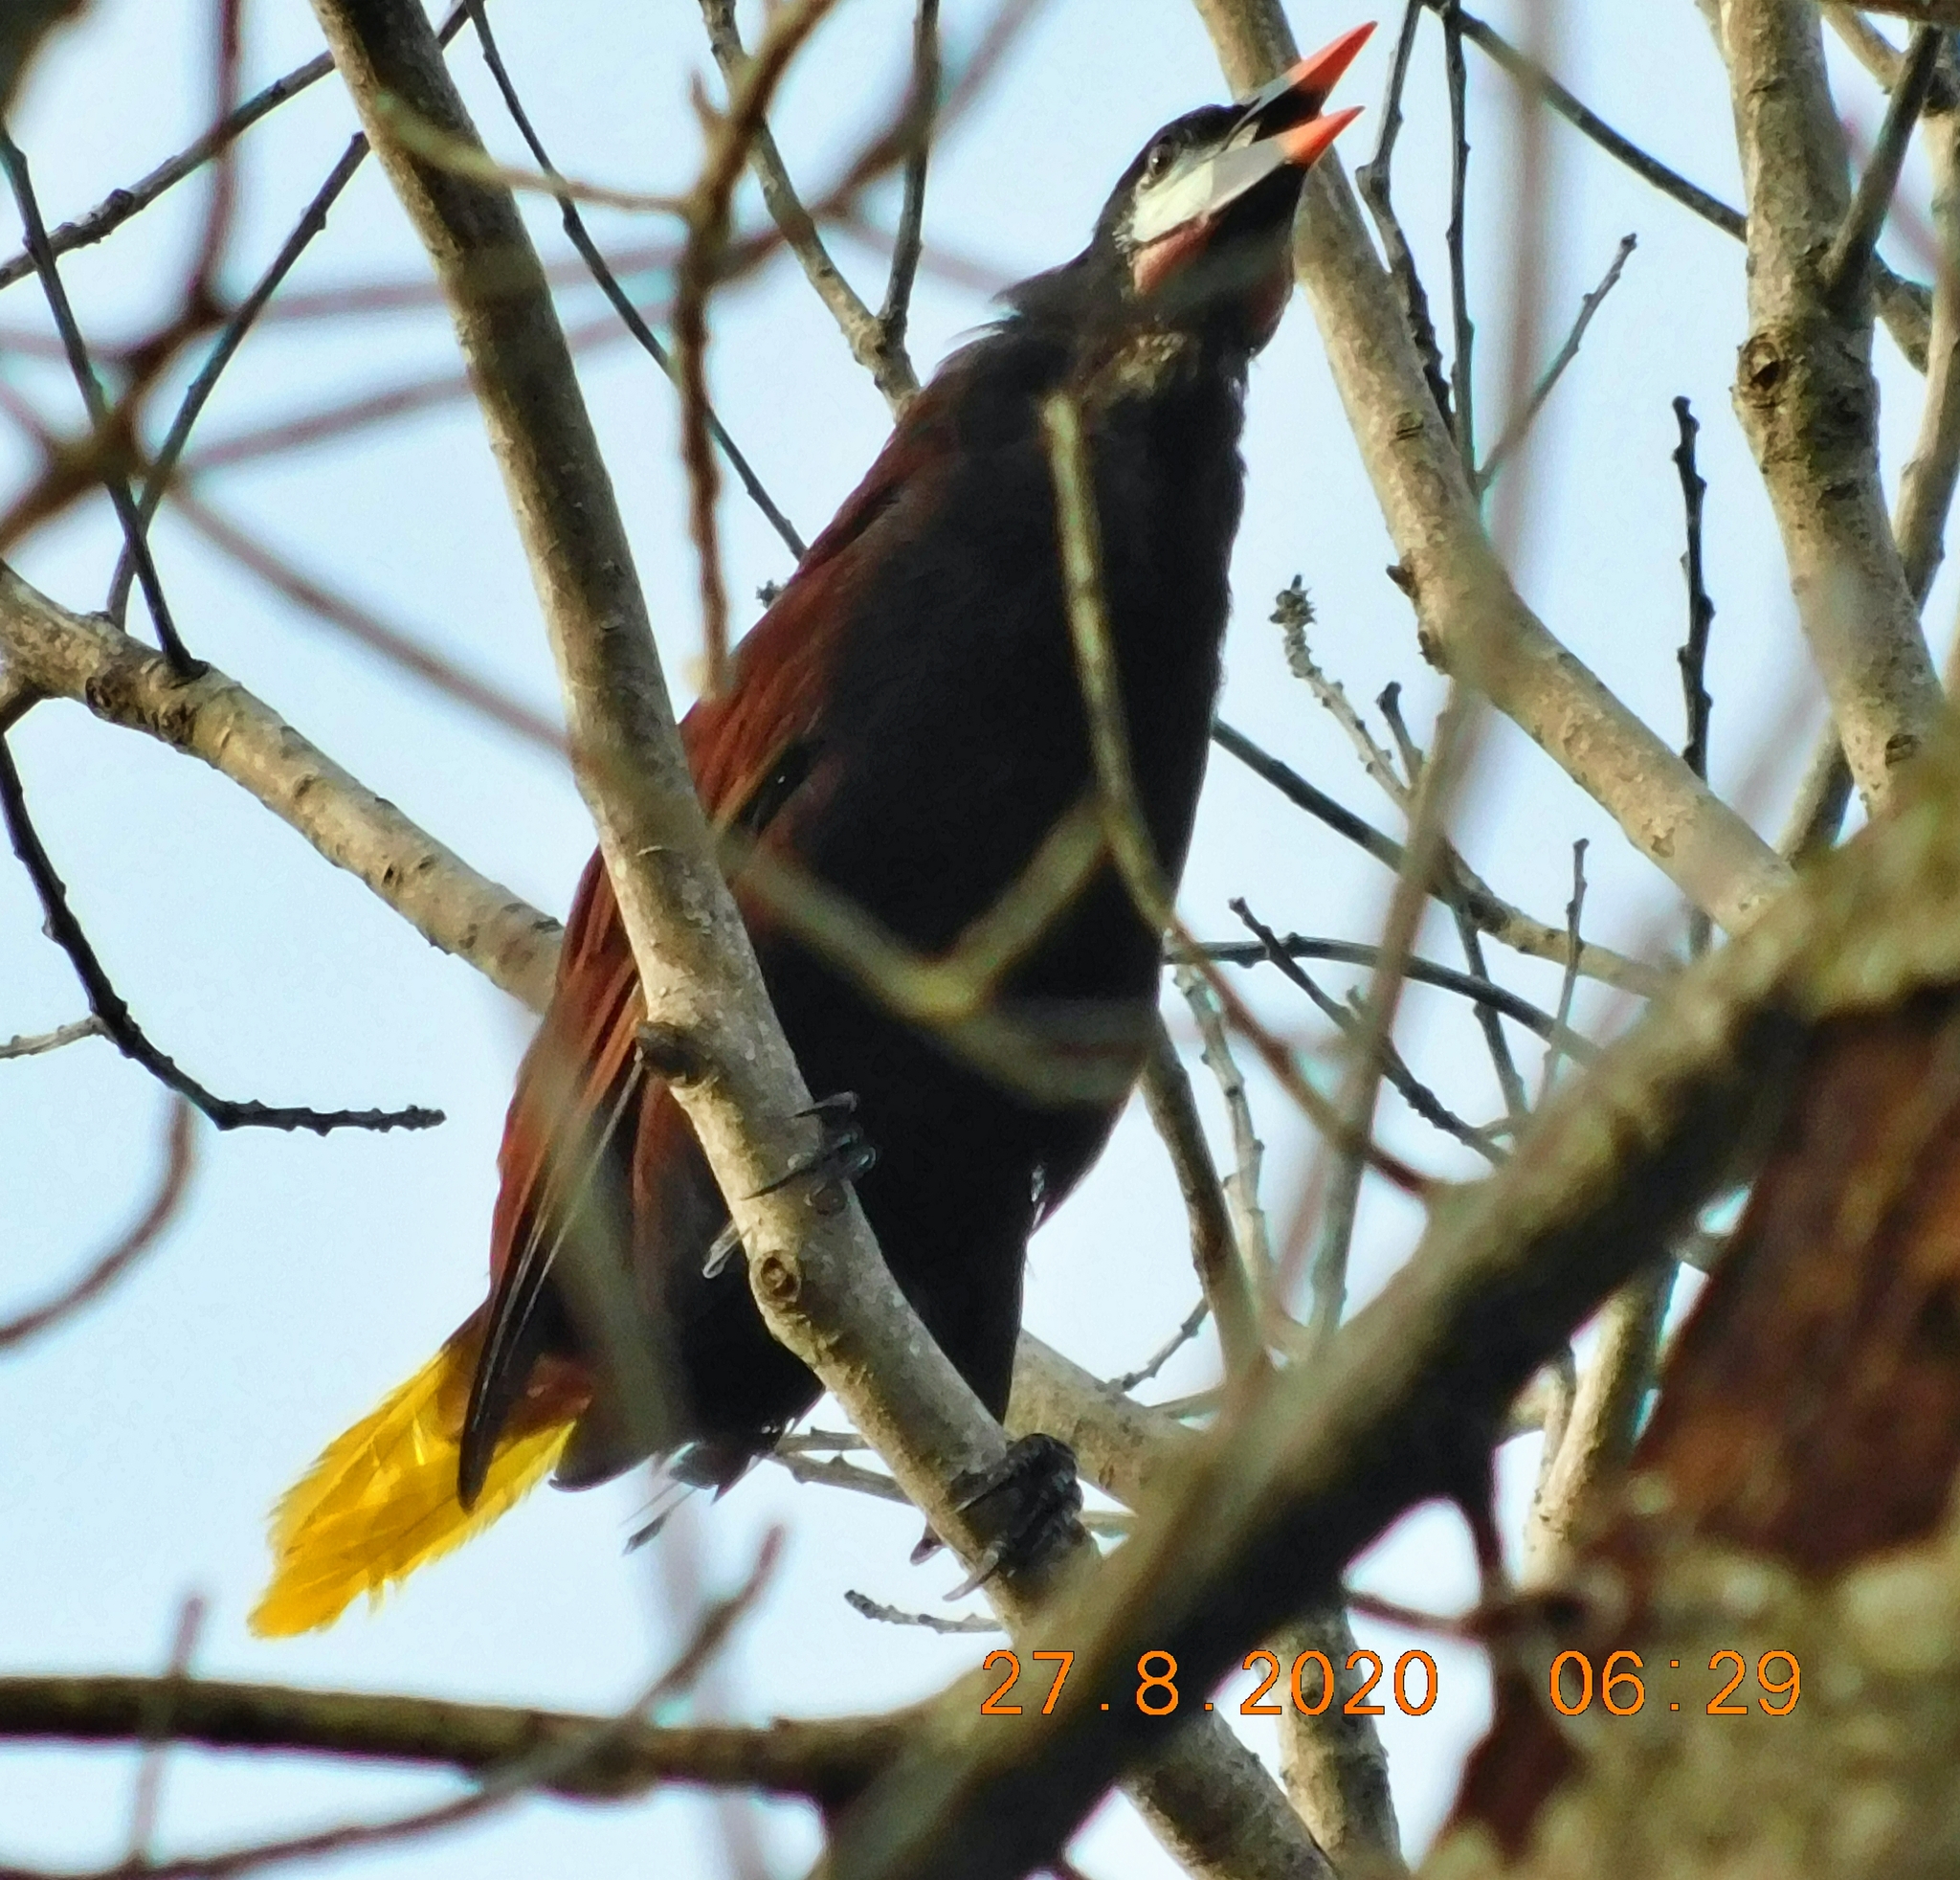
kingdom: Animalia
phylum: Chordata
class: Aves
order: Passeriformes
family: Icteridae
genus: Psarocolius
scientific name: Psarocolius montezuma
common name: Montezuma oropendola
